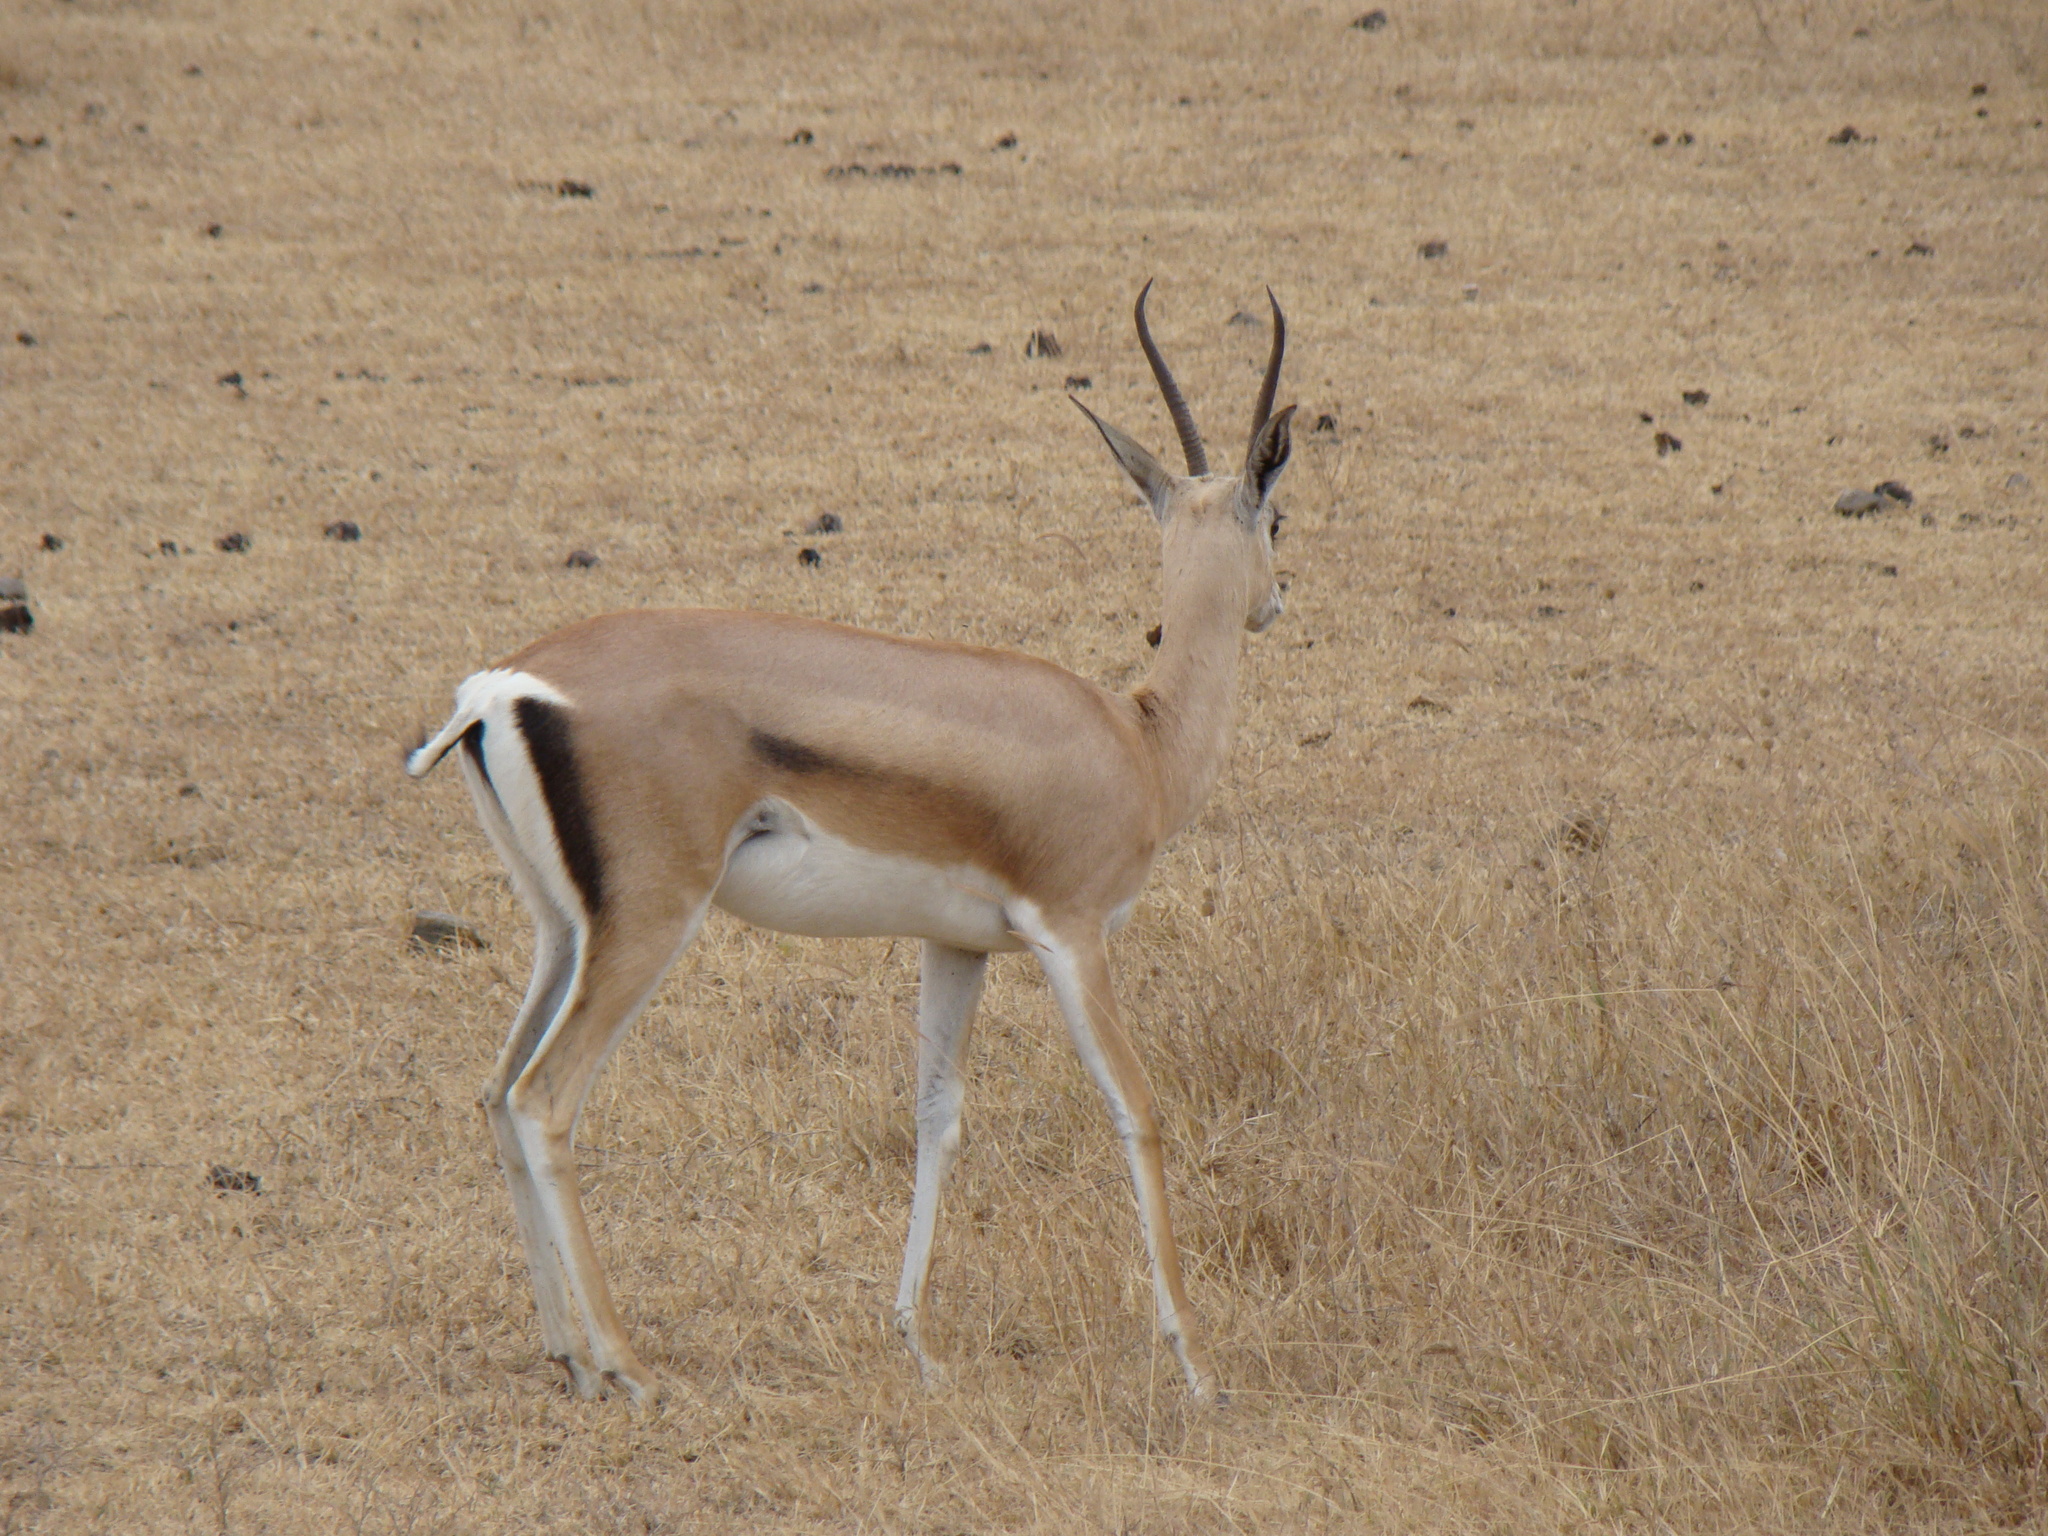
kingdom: Animalia
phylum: Chordata
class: Mammalia
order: Artiodactyla
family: Bovidae
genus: Nanger
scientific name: Nanger granti
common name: Grant's gazelle
